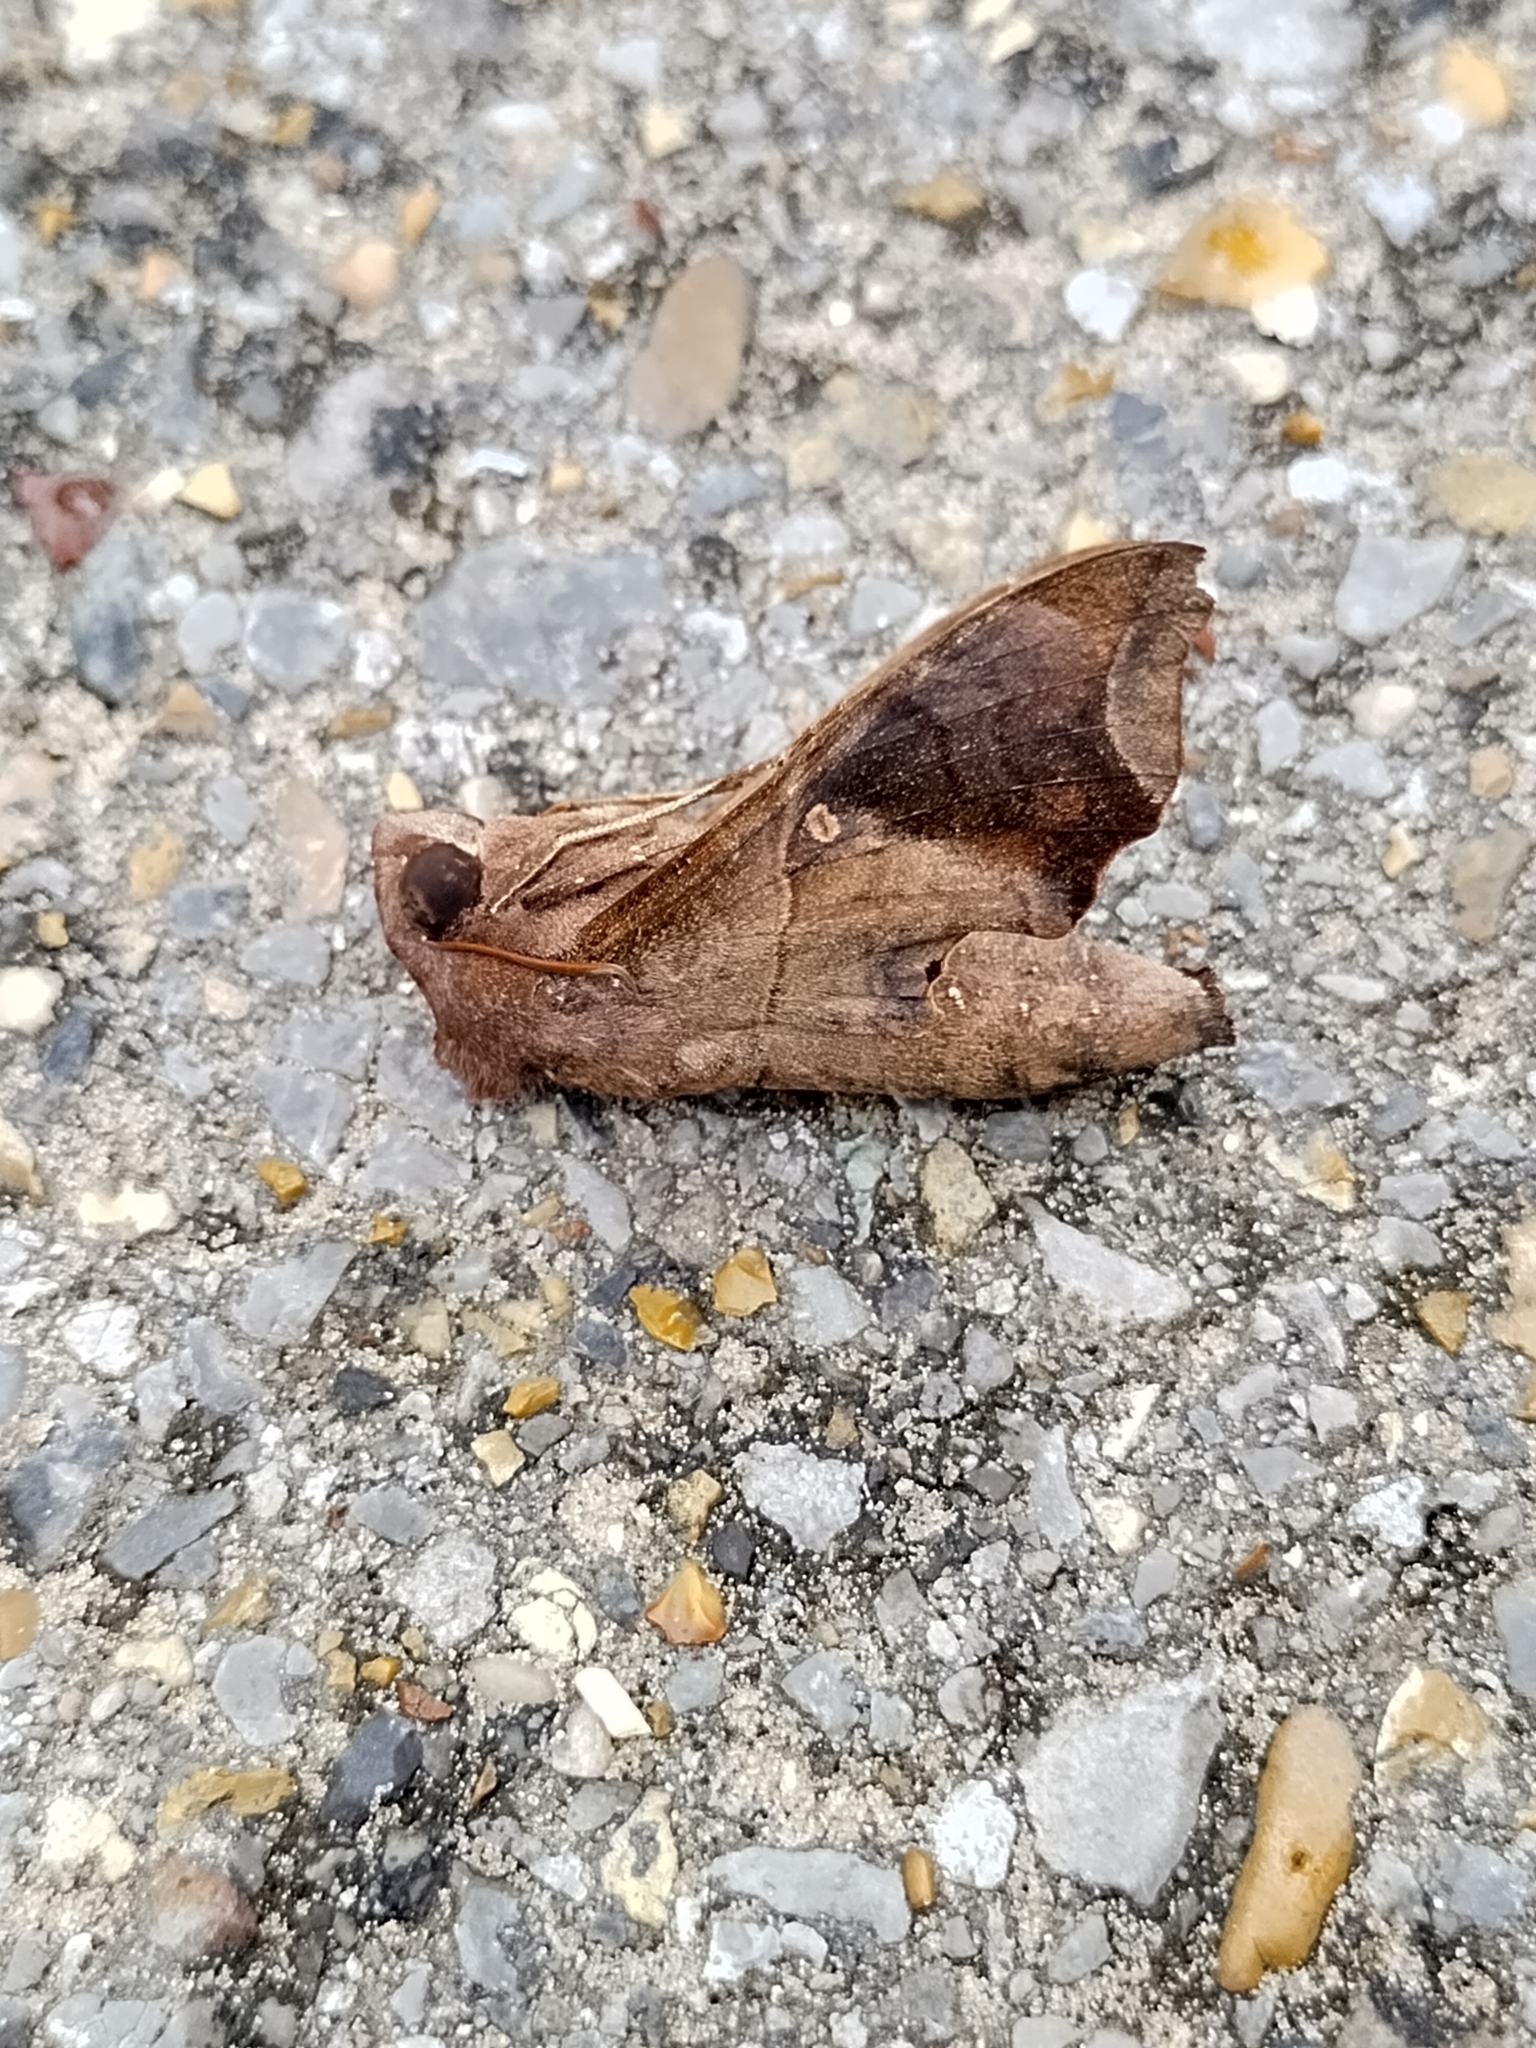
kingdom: Animalia
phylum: Arthropoda
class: Insecta
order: Lepidoptera
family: Sphingidae
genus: Enyo
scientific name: Enyo lugubris
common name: Mournful sphinx
